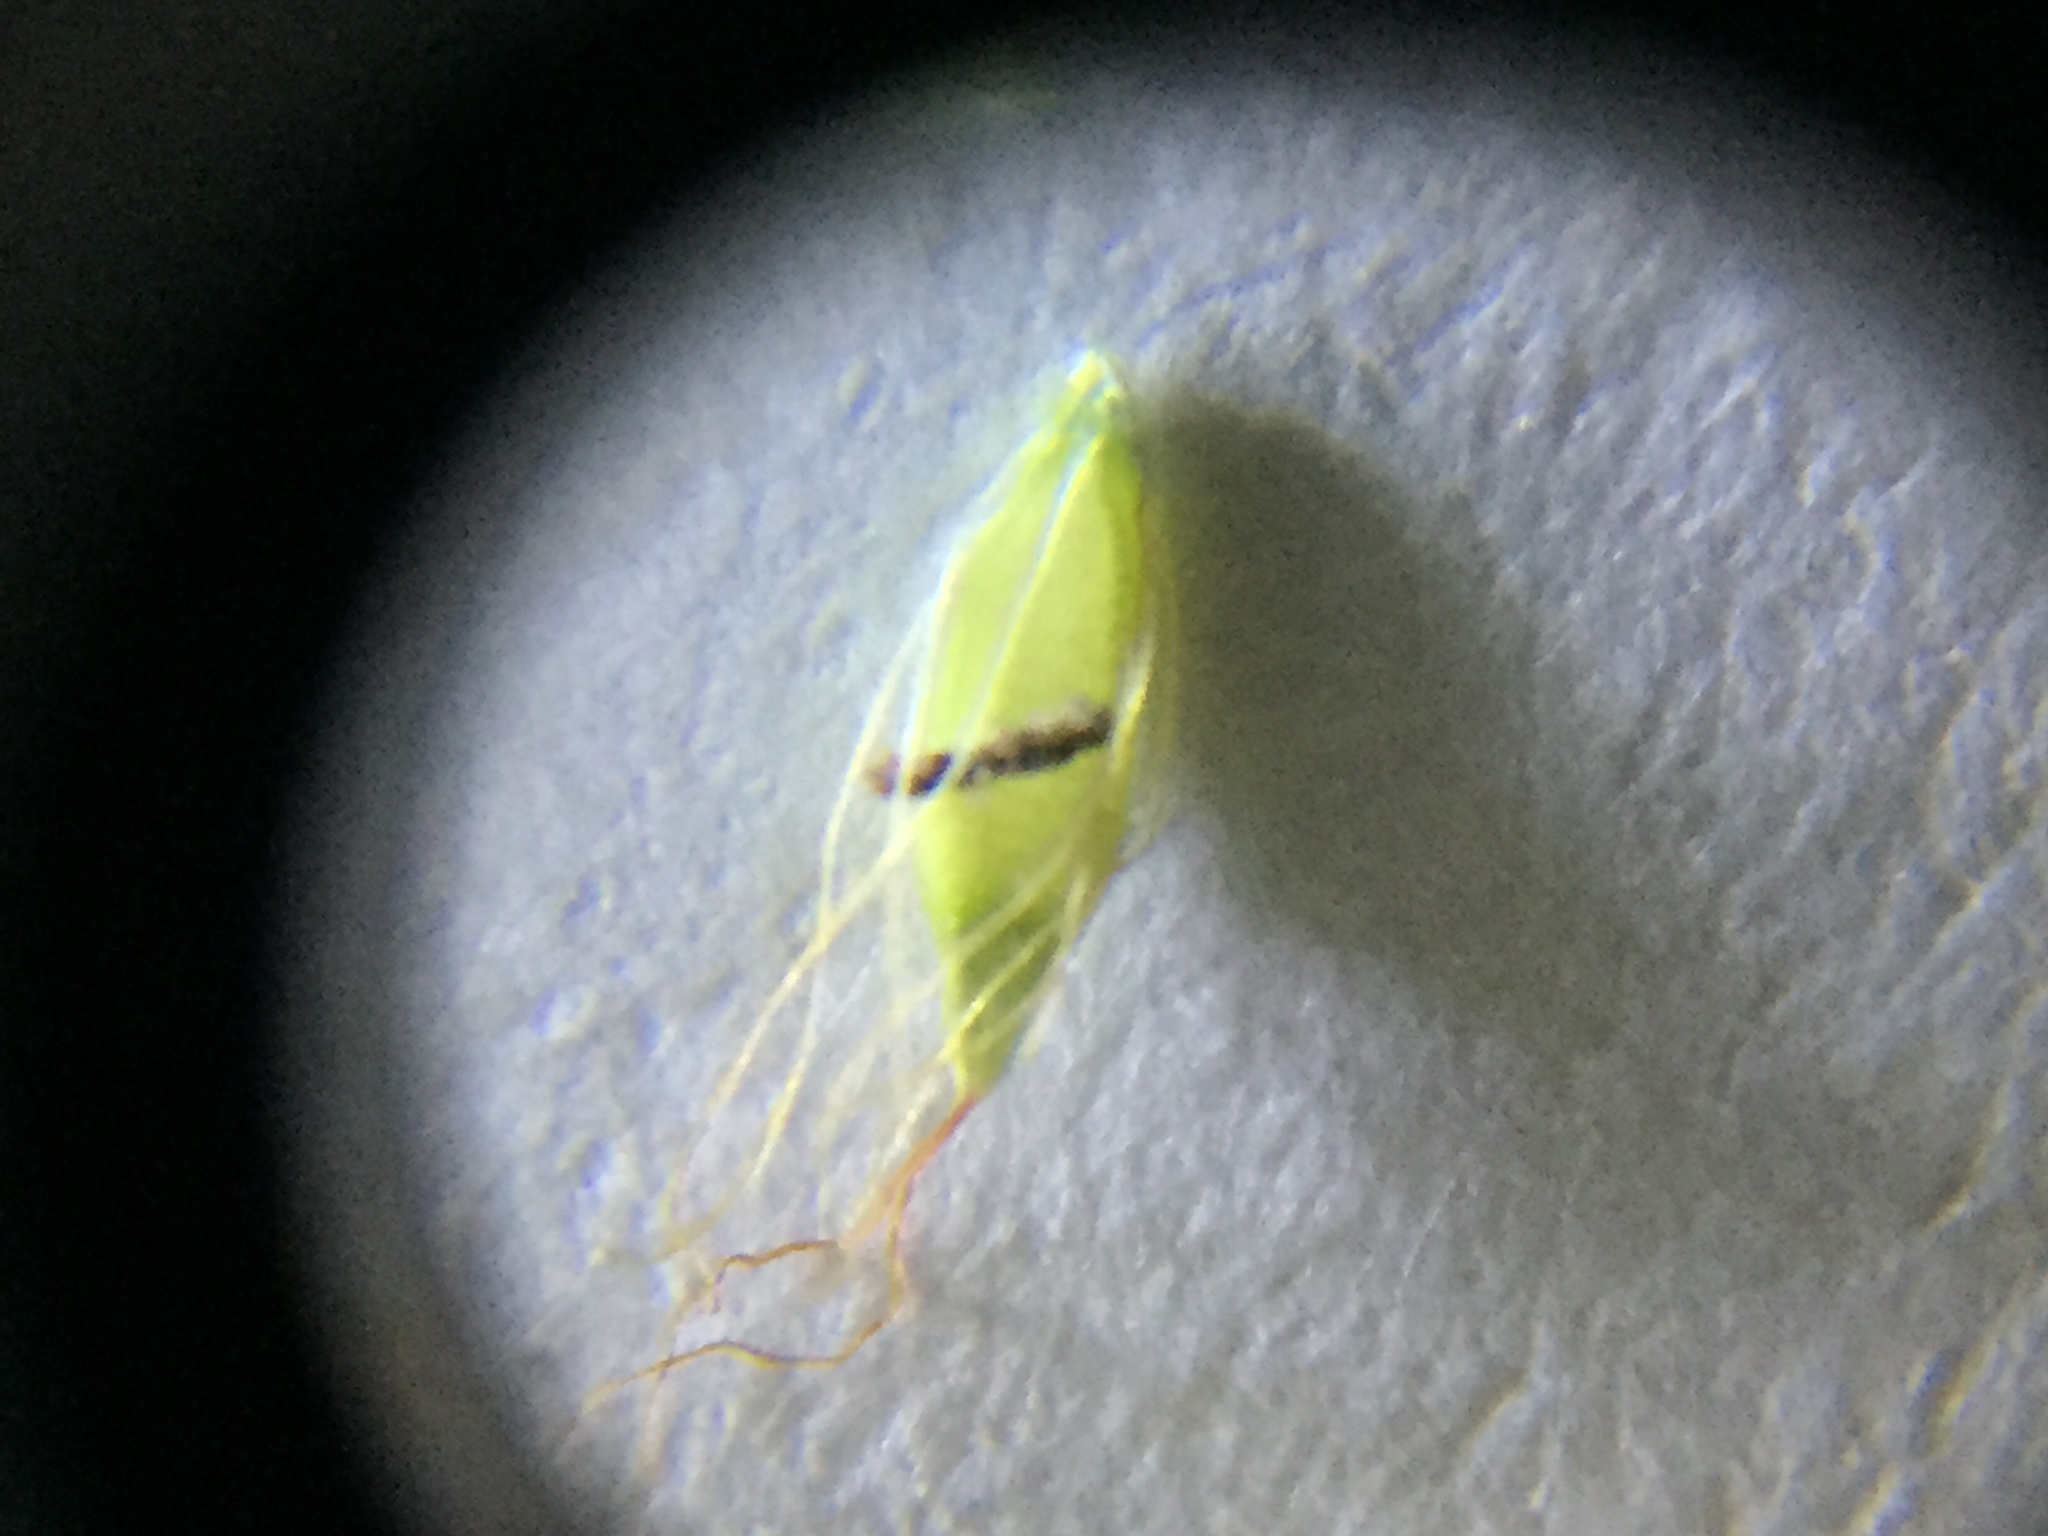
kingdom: Plantae
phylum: Tracheophyta
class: Liliopsida
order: Poales
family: Cyperaceae
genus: Rhynchospora
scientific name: Rhynchospora inexpansa
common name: Nodding beaksedge
